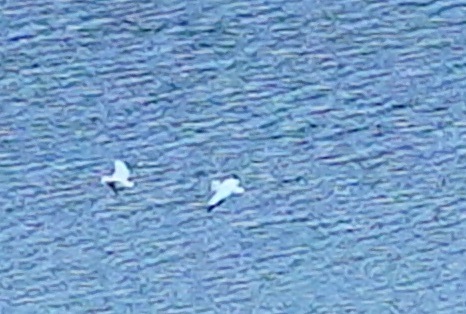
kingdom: Animalia
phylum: Chordata
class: Aves
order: Pelecaniformes
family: Pelecanidae
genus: Pelecanus
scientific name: Pelecanus erythrorhynchos
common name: American white pelican
